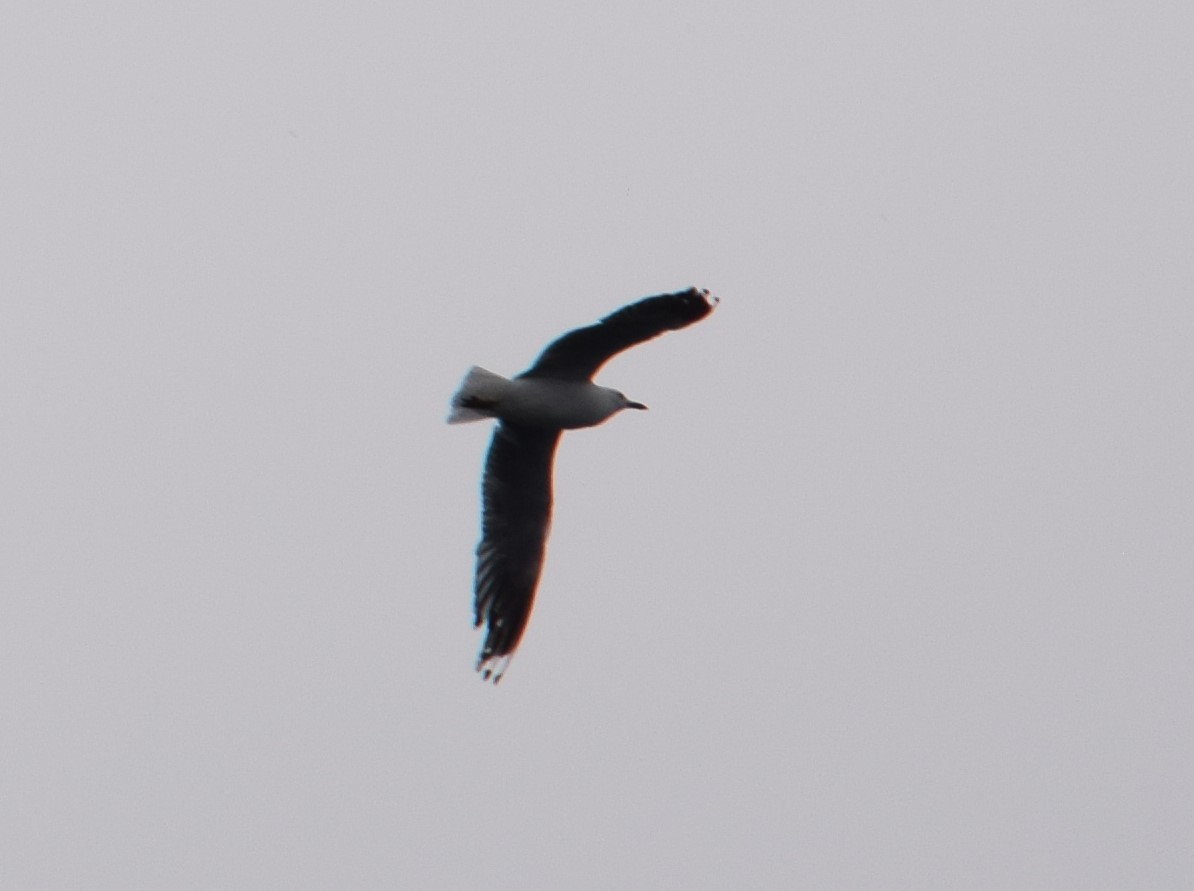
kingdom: Animalia
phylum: Chordata
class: Aves
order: Charadriiformes
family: Laridae
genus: Chroicocephalus
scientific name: Chroicocephalus novaehollandiae
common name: Silver gull
